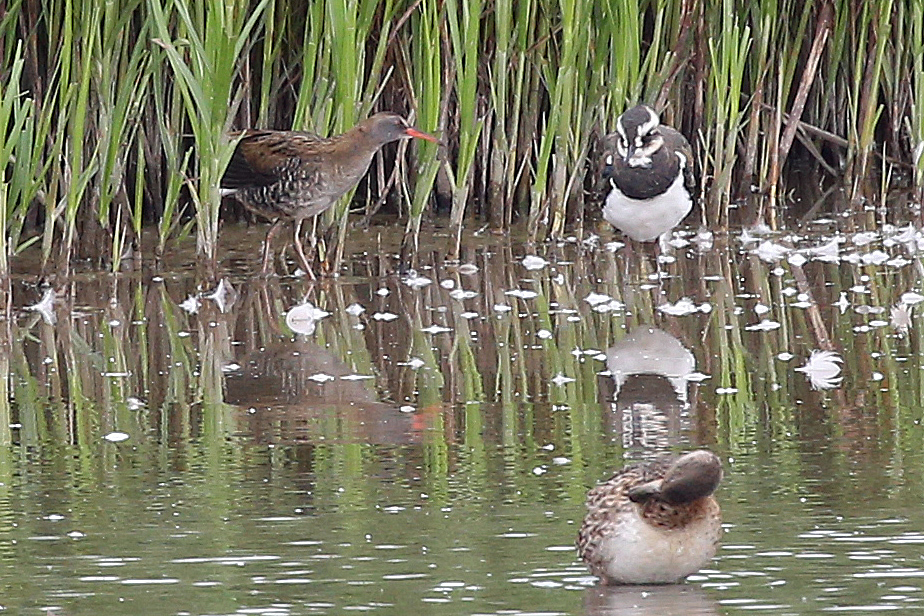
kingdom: Animalia
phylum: Chordata
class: Aves
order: Gruiformes
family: Rallidae
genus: Rallus
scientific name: Rallus aquaticus
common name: Water rail
